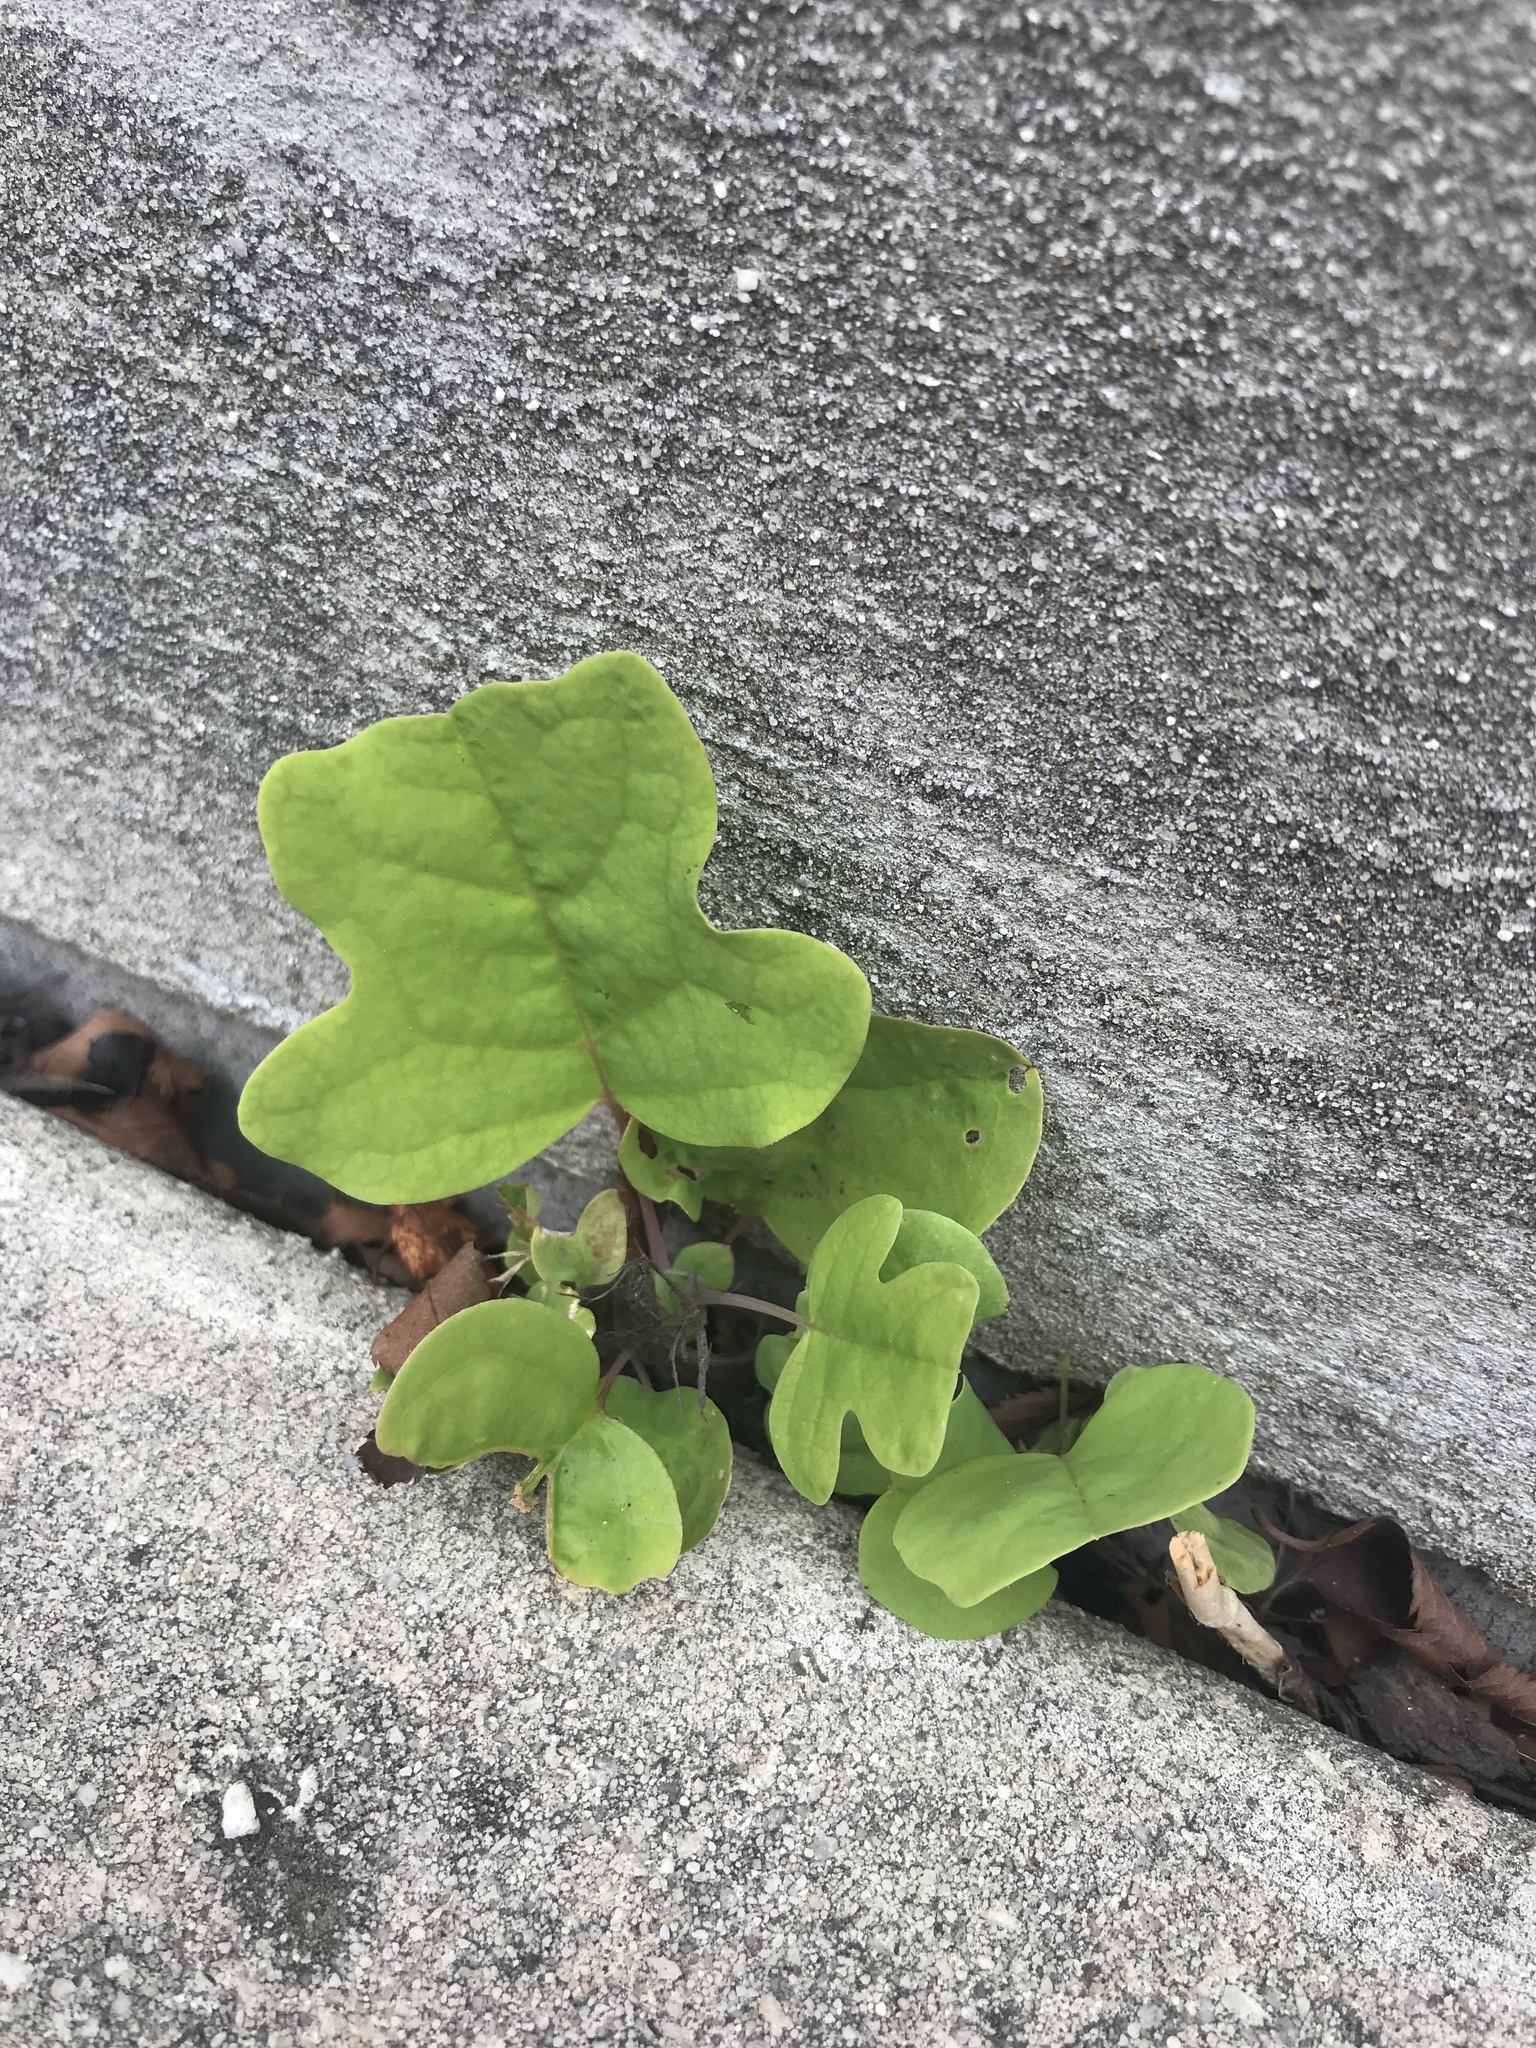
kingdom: Plantae
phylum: Tracheophyta
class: Magnoliopsida
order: Magnoliales
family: Magnoliaceae
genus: Liriodendron
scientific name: Liriodendron tulipifera
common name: Tulip tree
